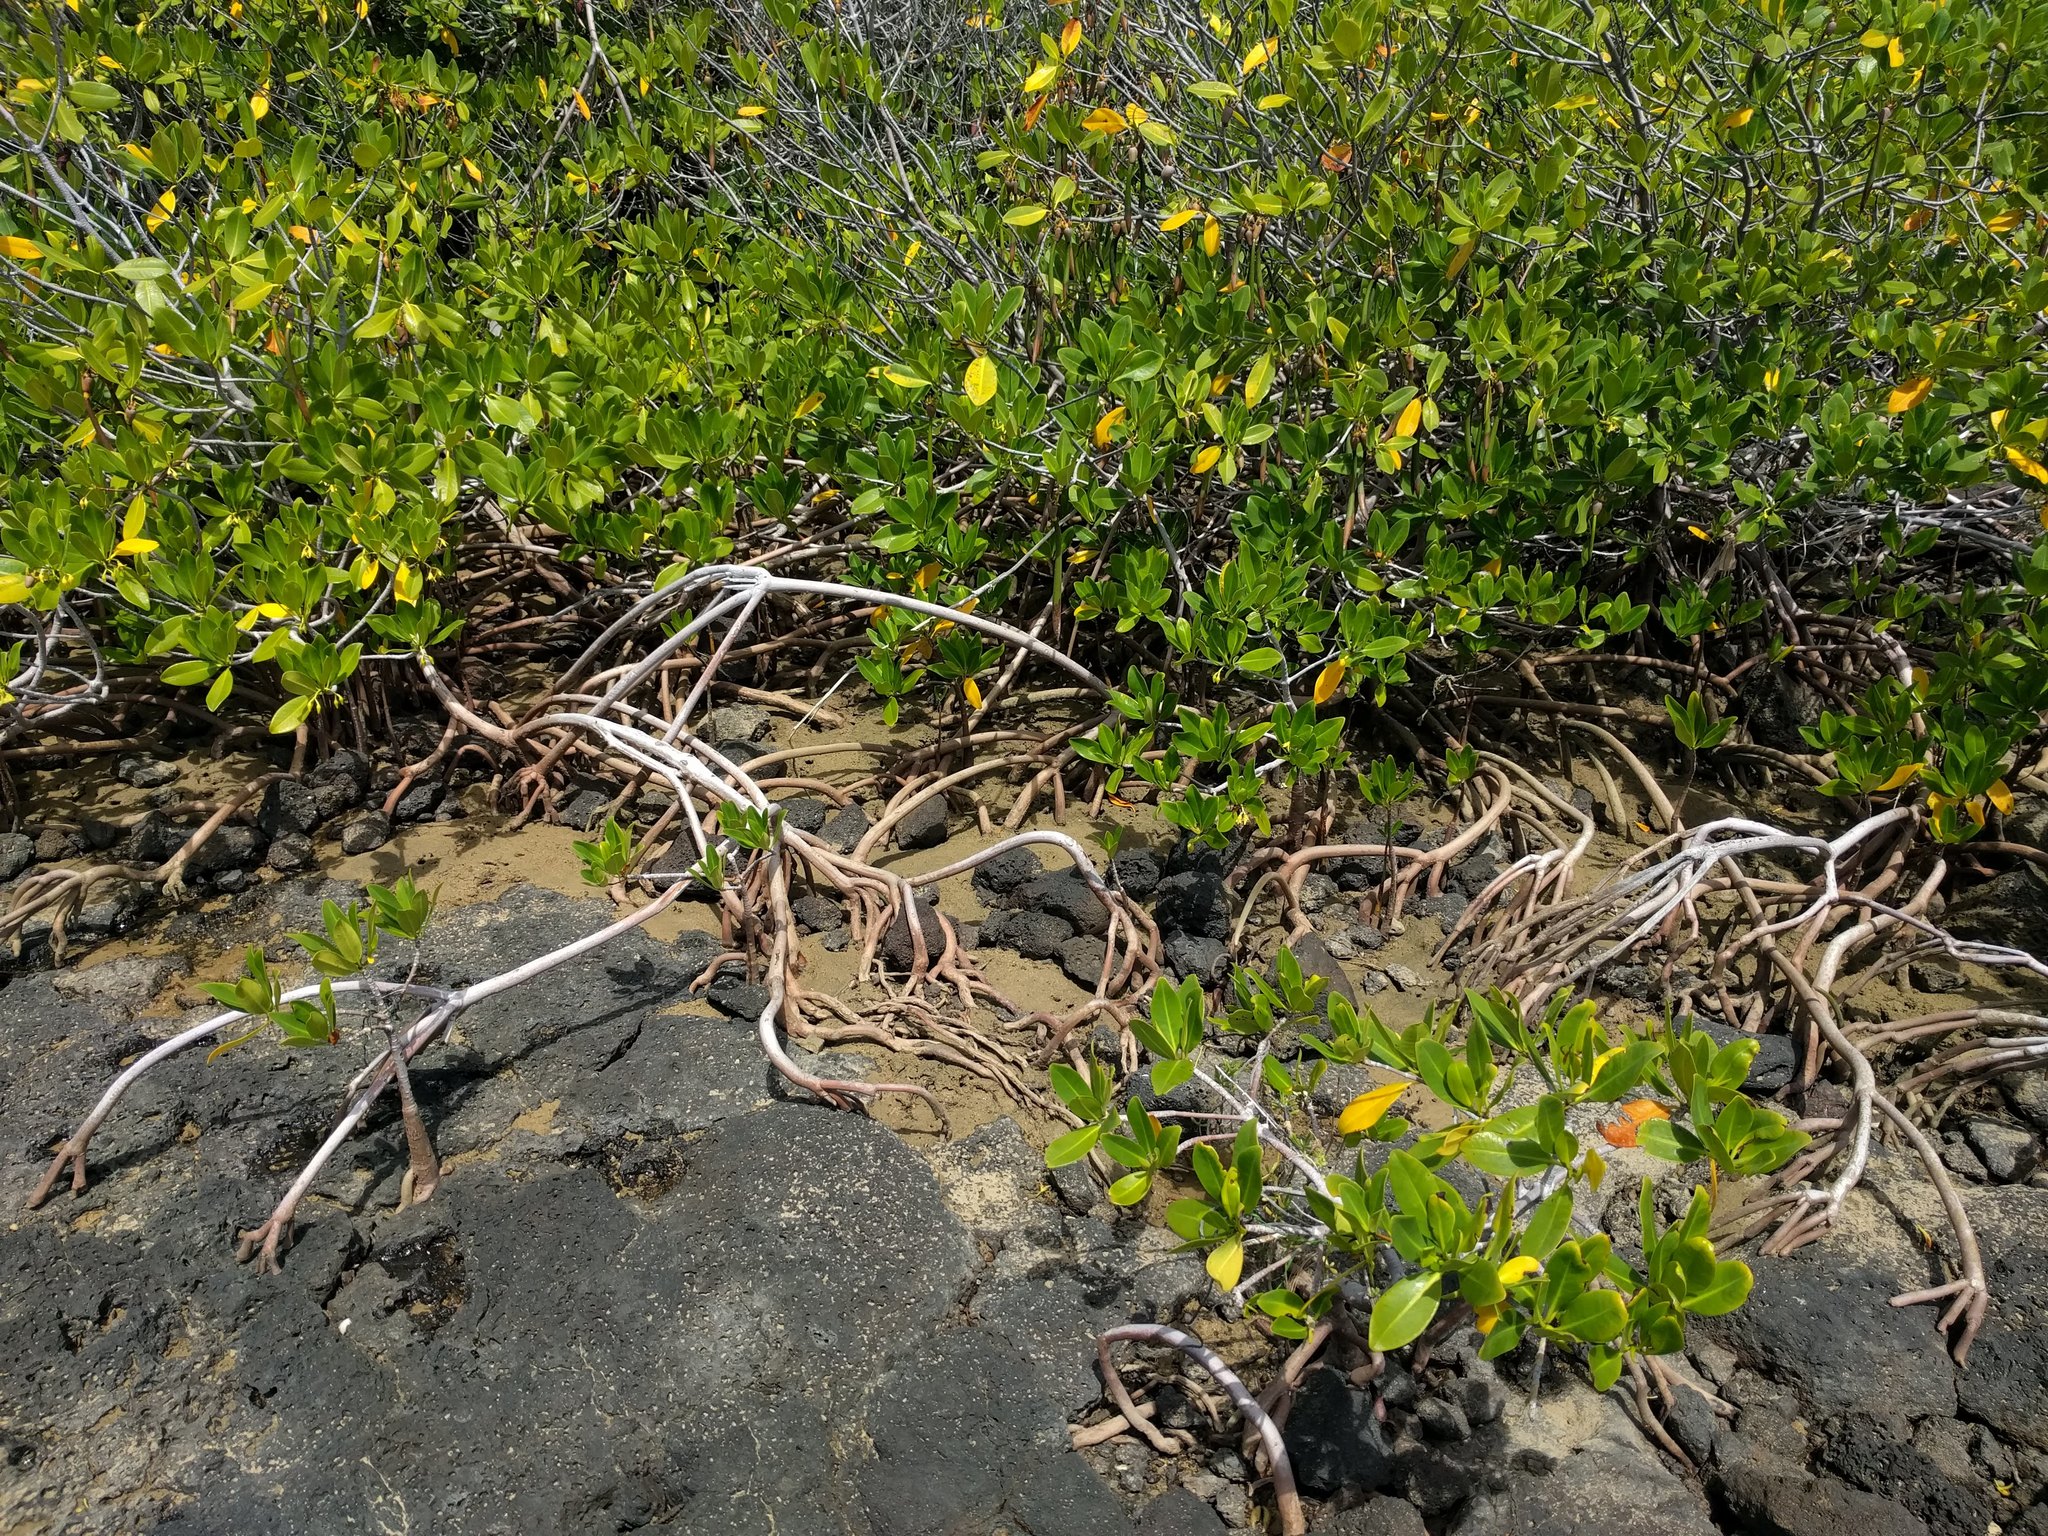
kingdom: Plantae
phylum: Tracheophyta
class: Magnoliopsida
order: Malpighiales
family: Rhizophoraceae
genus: Rhizophora
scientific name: Rhizophora mangle
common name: Red mangrove
